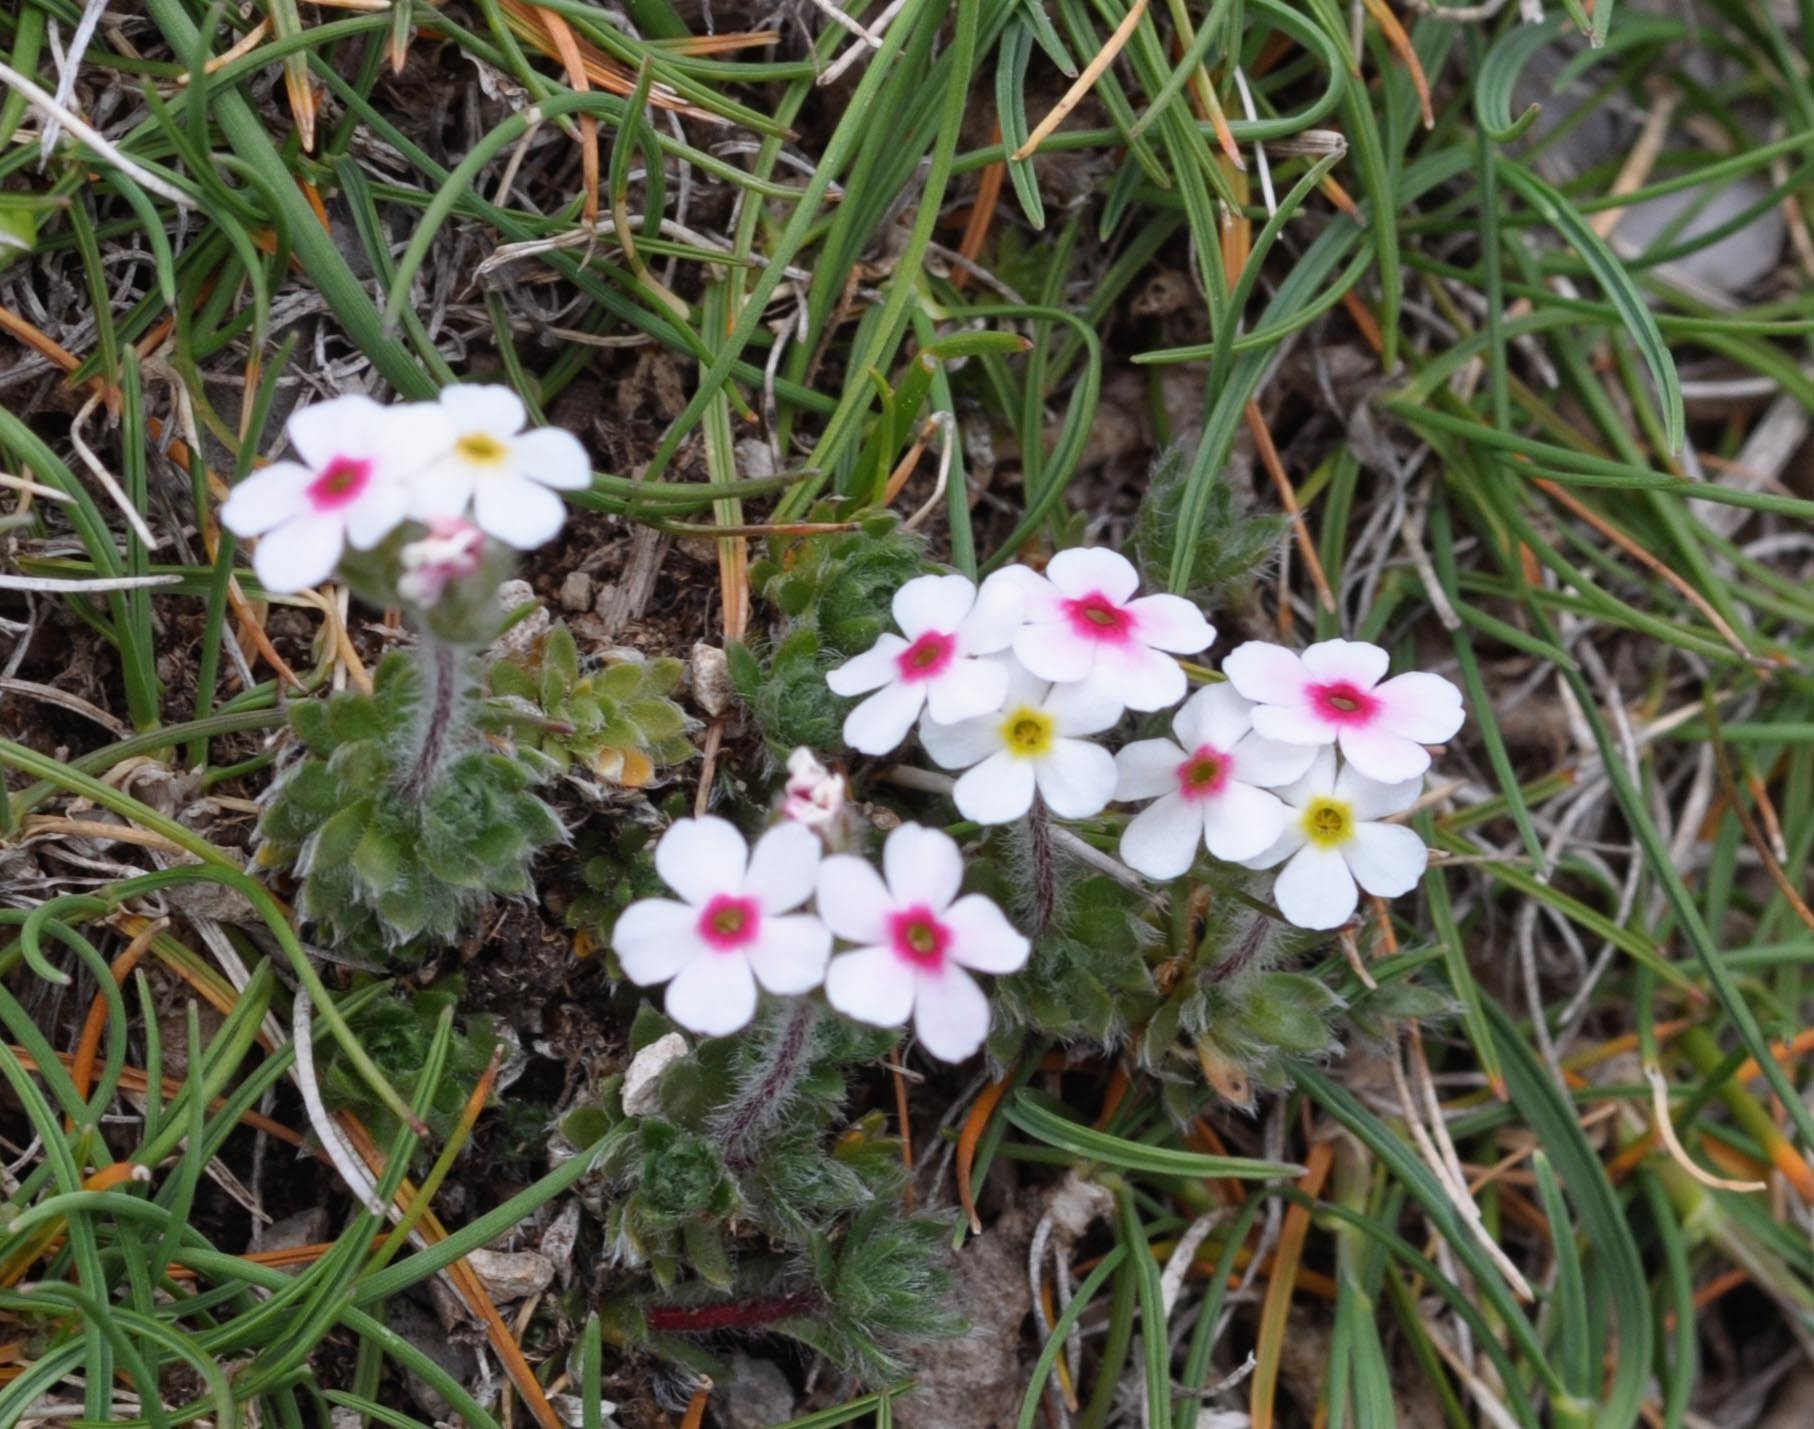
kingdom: Plantae
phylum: Tracheophyta
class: Magnoliopsida
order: Ericales
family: Primulaceae
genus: Androsace
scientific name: Androsace villosa
